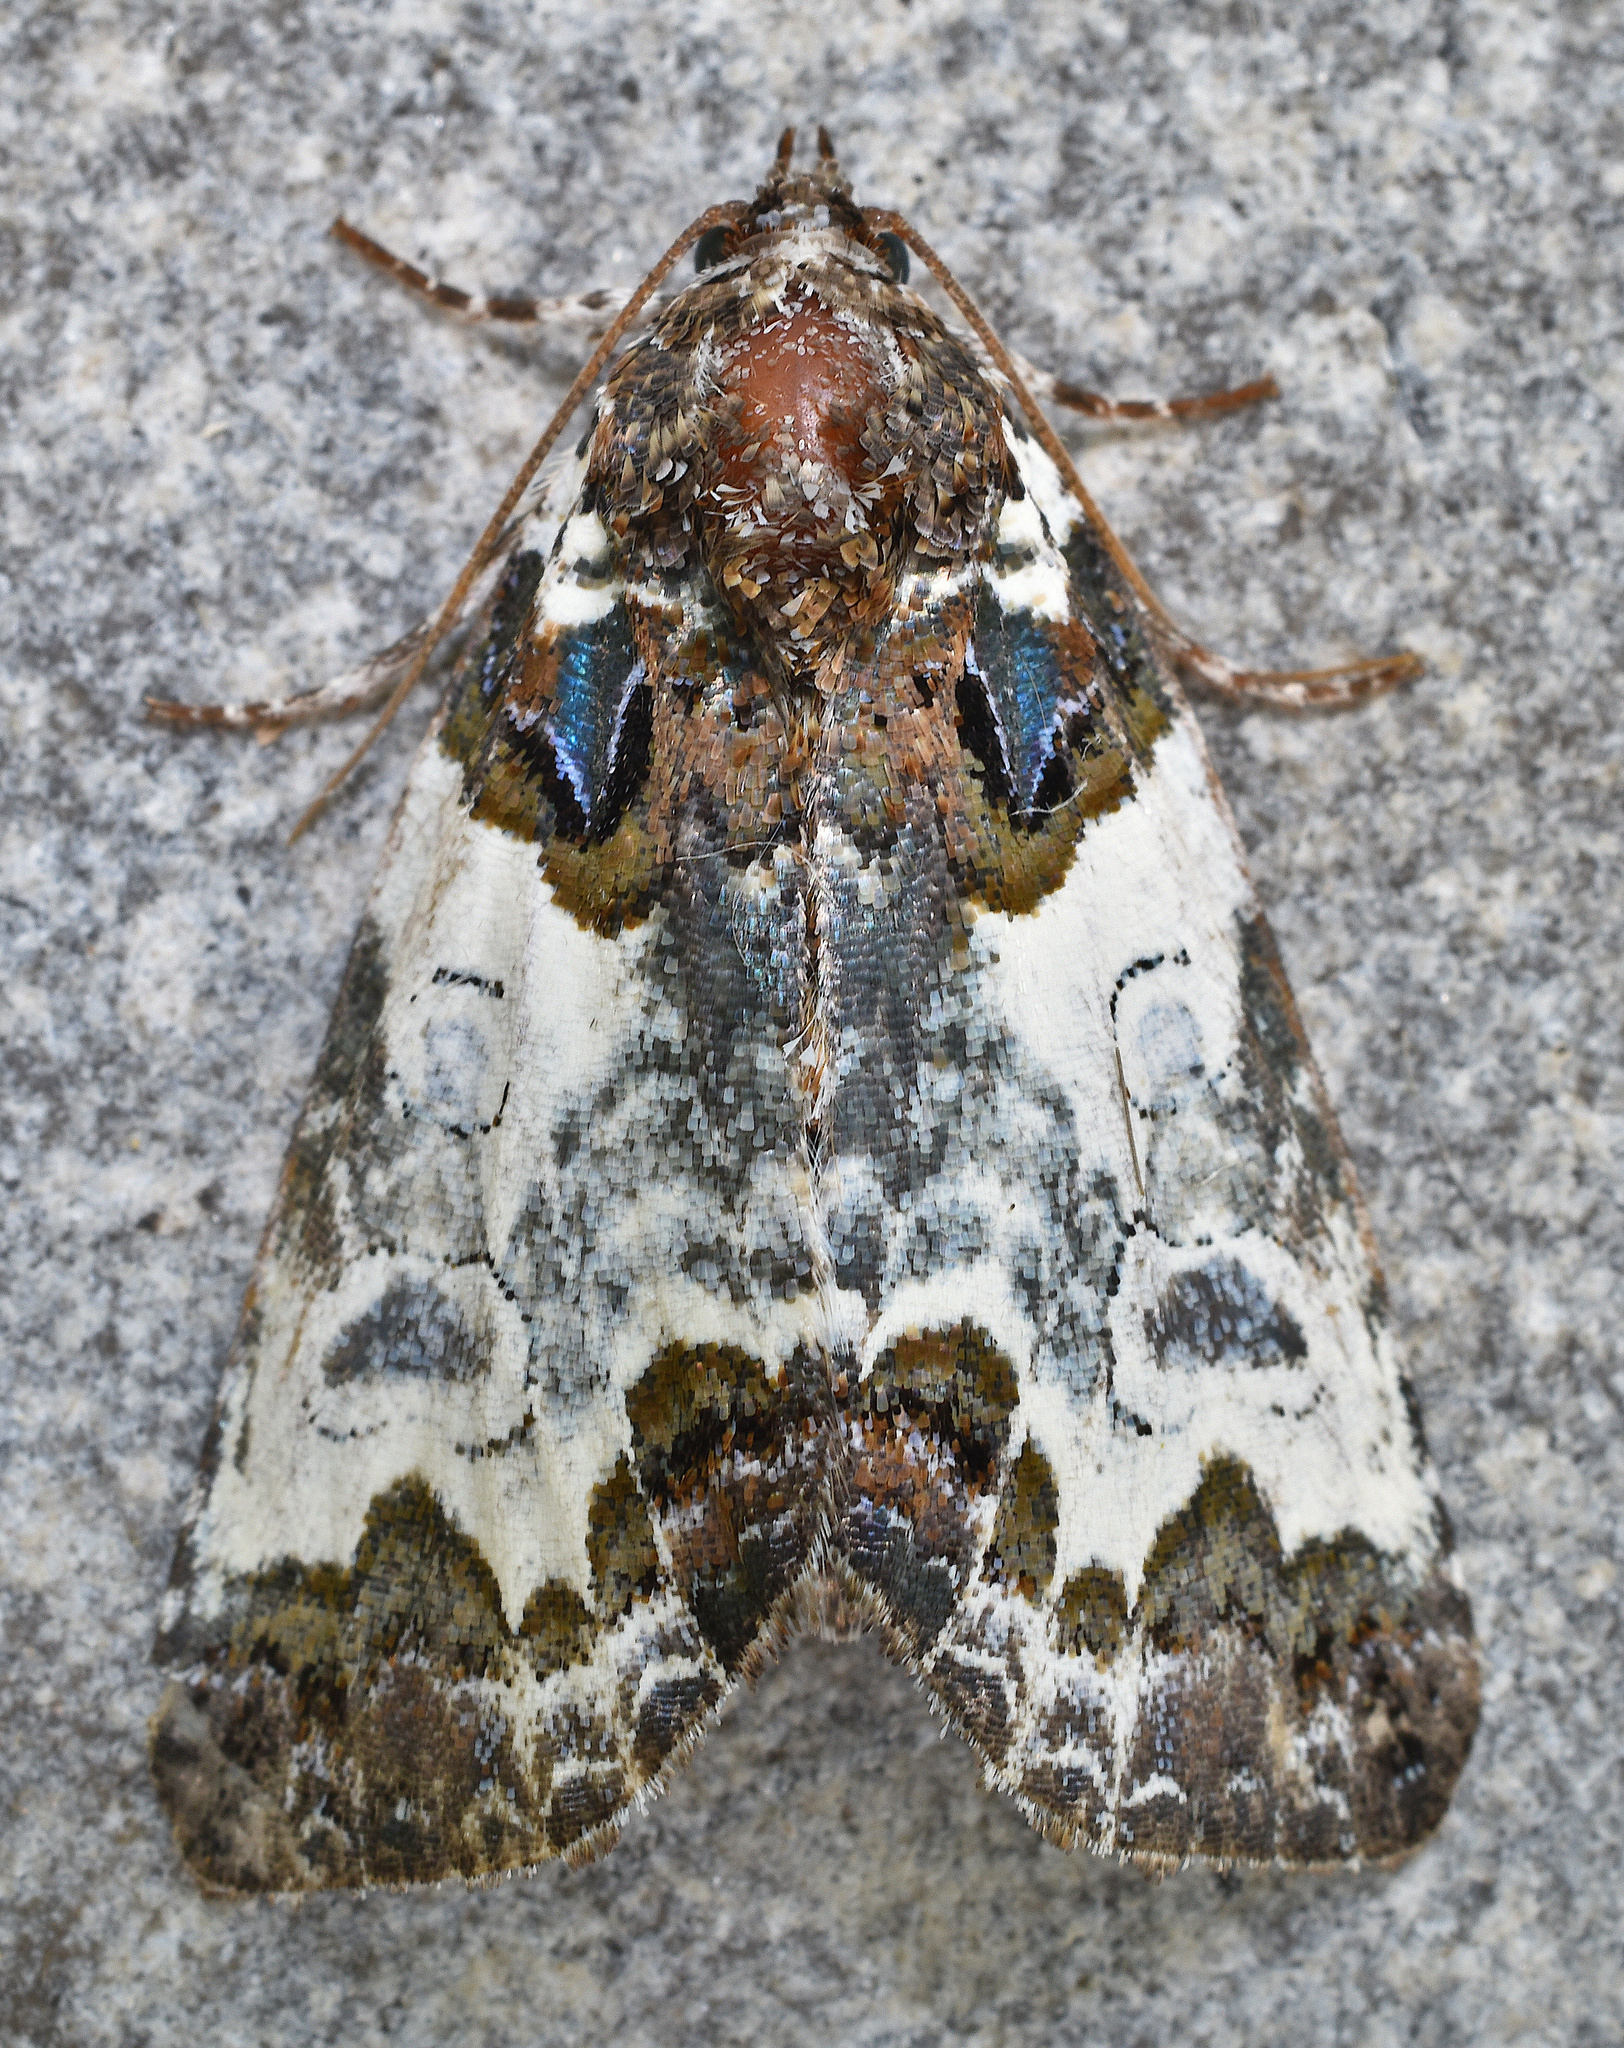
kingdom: Animalia
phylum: Arthropoda
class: Insecta
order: Lepidoptera
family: Noctuidae
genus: Cerma
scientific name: Cerma cerintha
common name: Tufted bird-dropping moth
